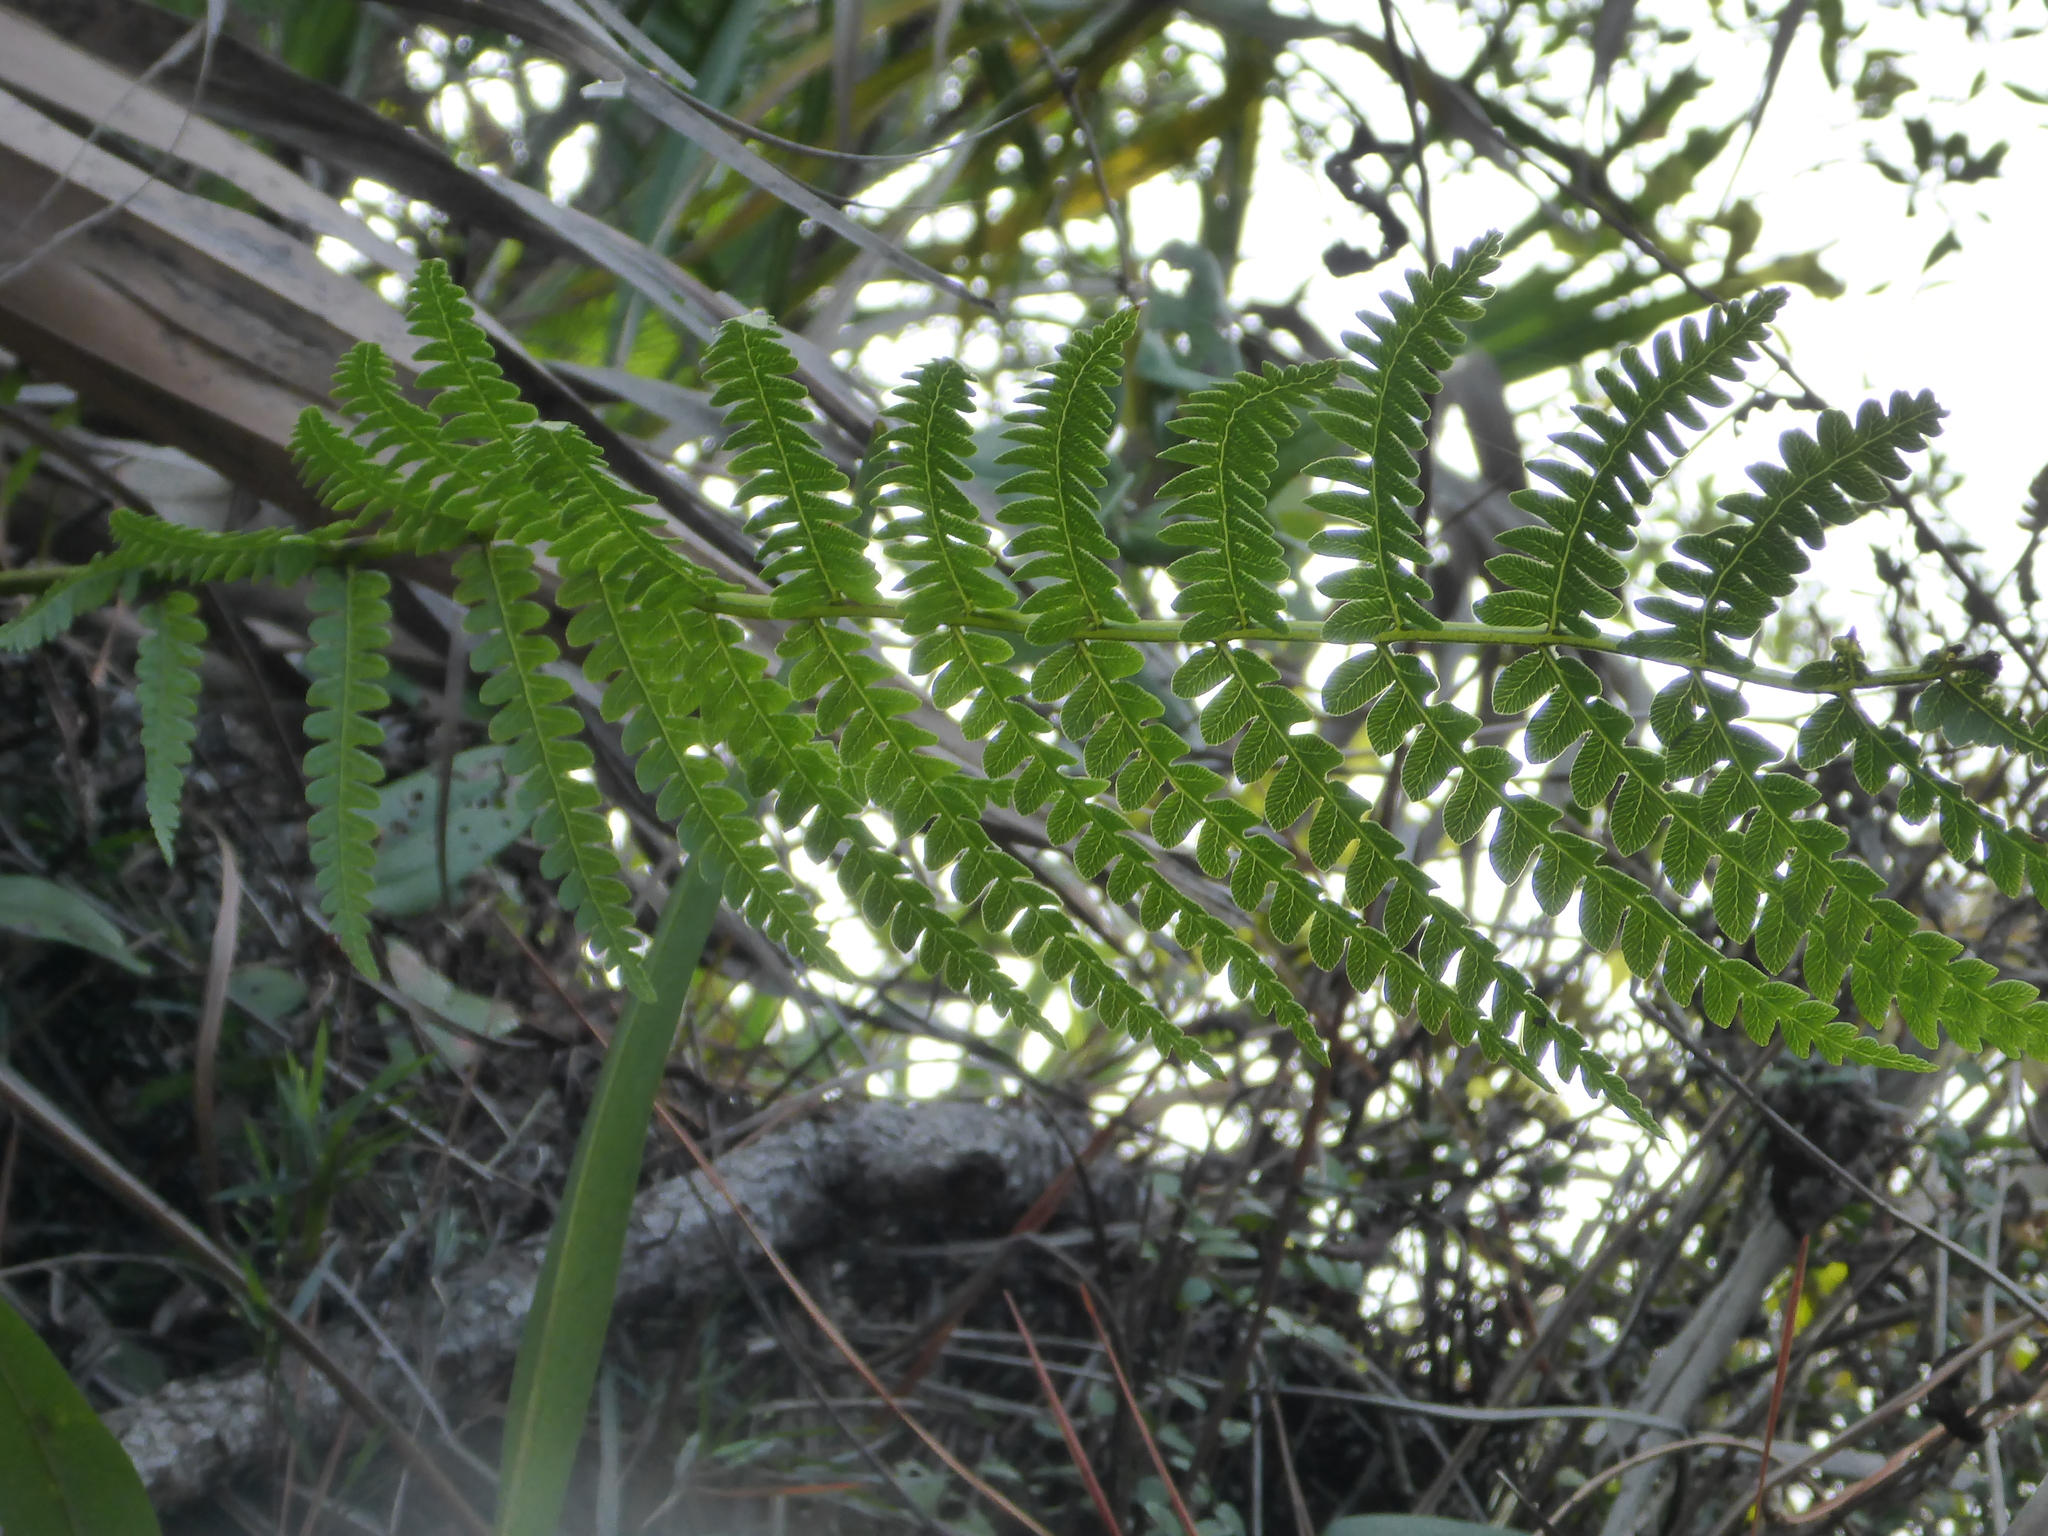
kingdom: Plantae
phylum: Tracheophyta
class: Polypodiopsida
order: Osmundales
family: Osmundaceae
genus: Osmundastrum
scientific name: Osmundastrum cinnamomeum
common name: Cinnamon fern
